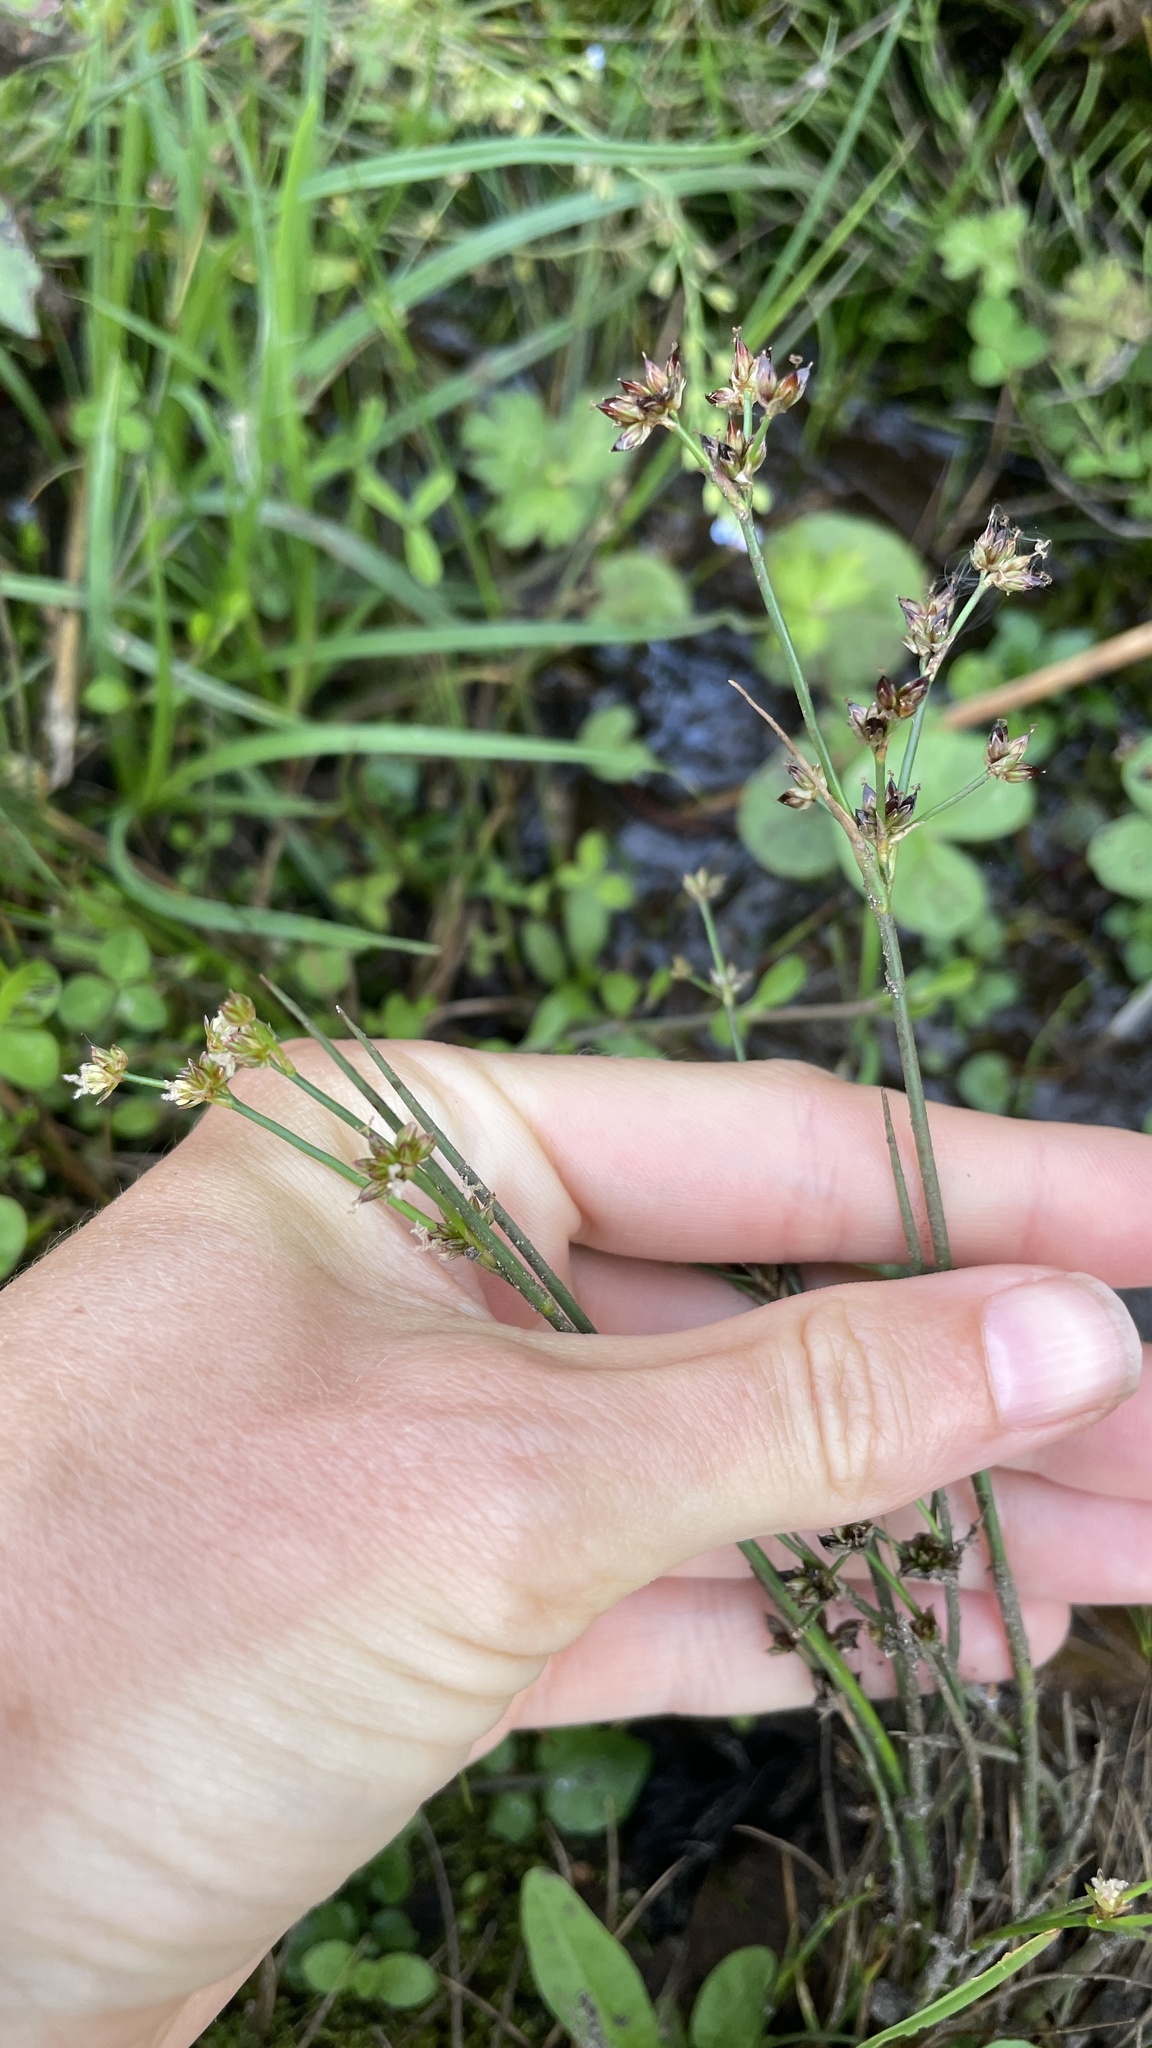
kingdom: Plantae
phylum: Tracheophyta
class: Liliopsida
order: Poales
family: Juncaceae
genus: Juncus
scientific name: Juncus articulatus
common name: Jointed rush
